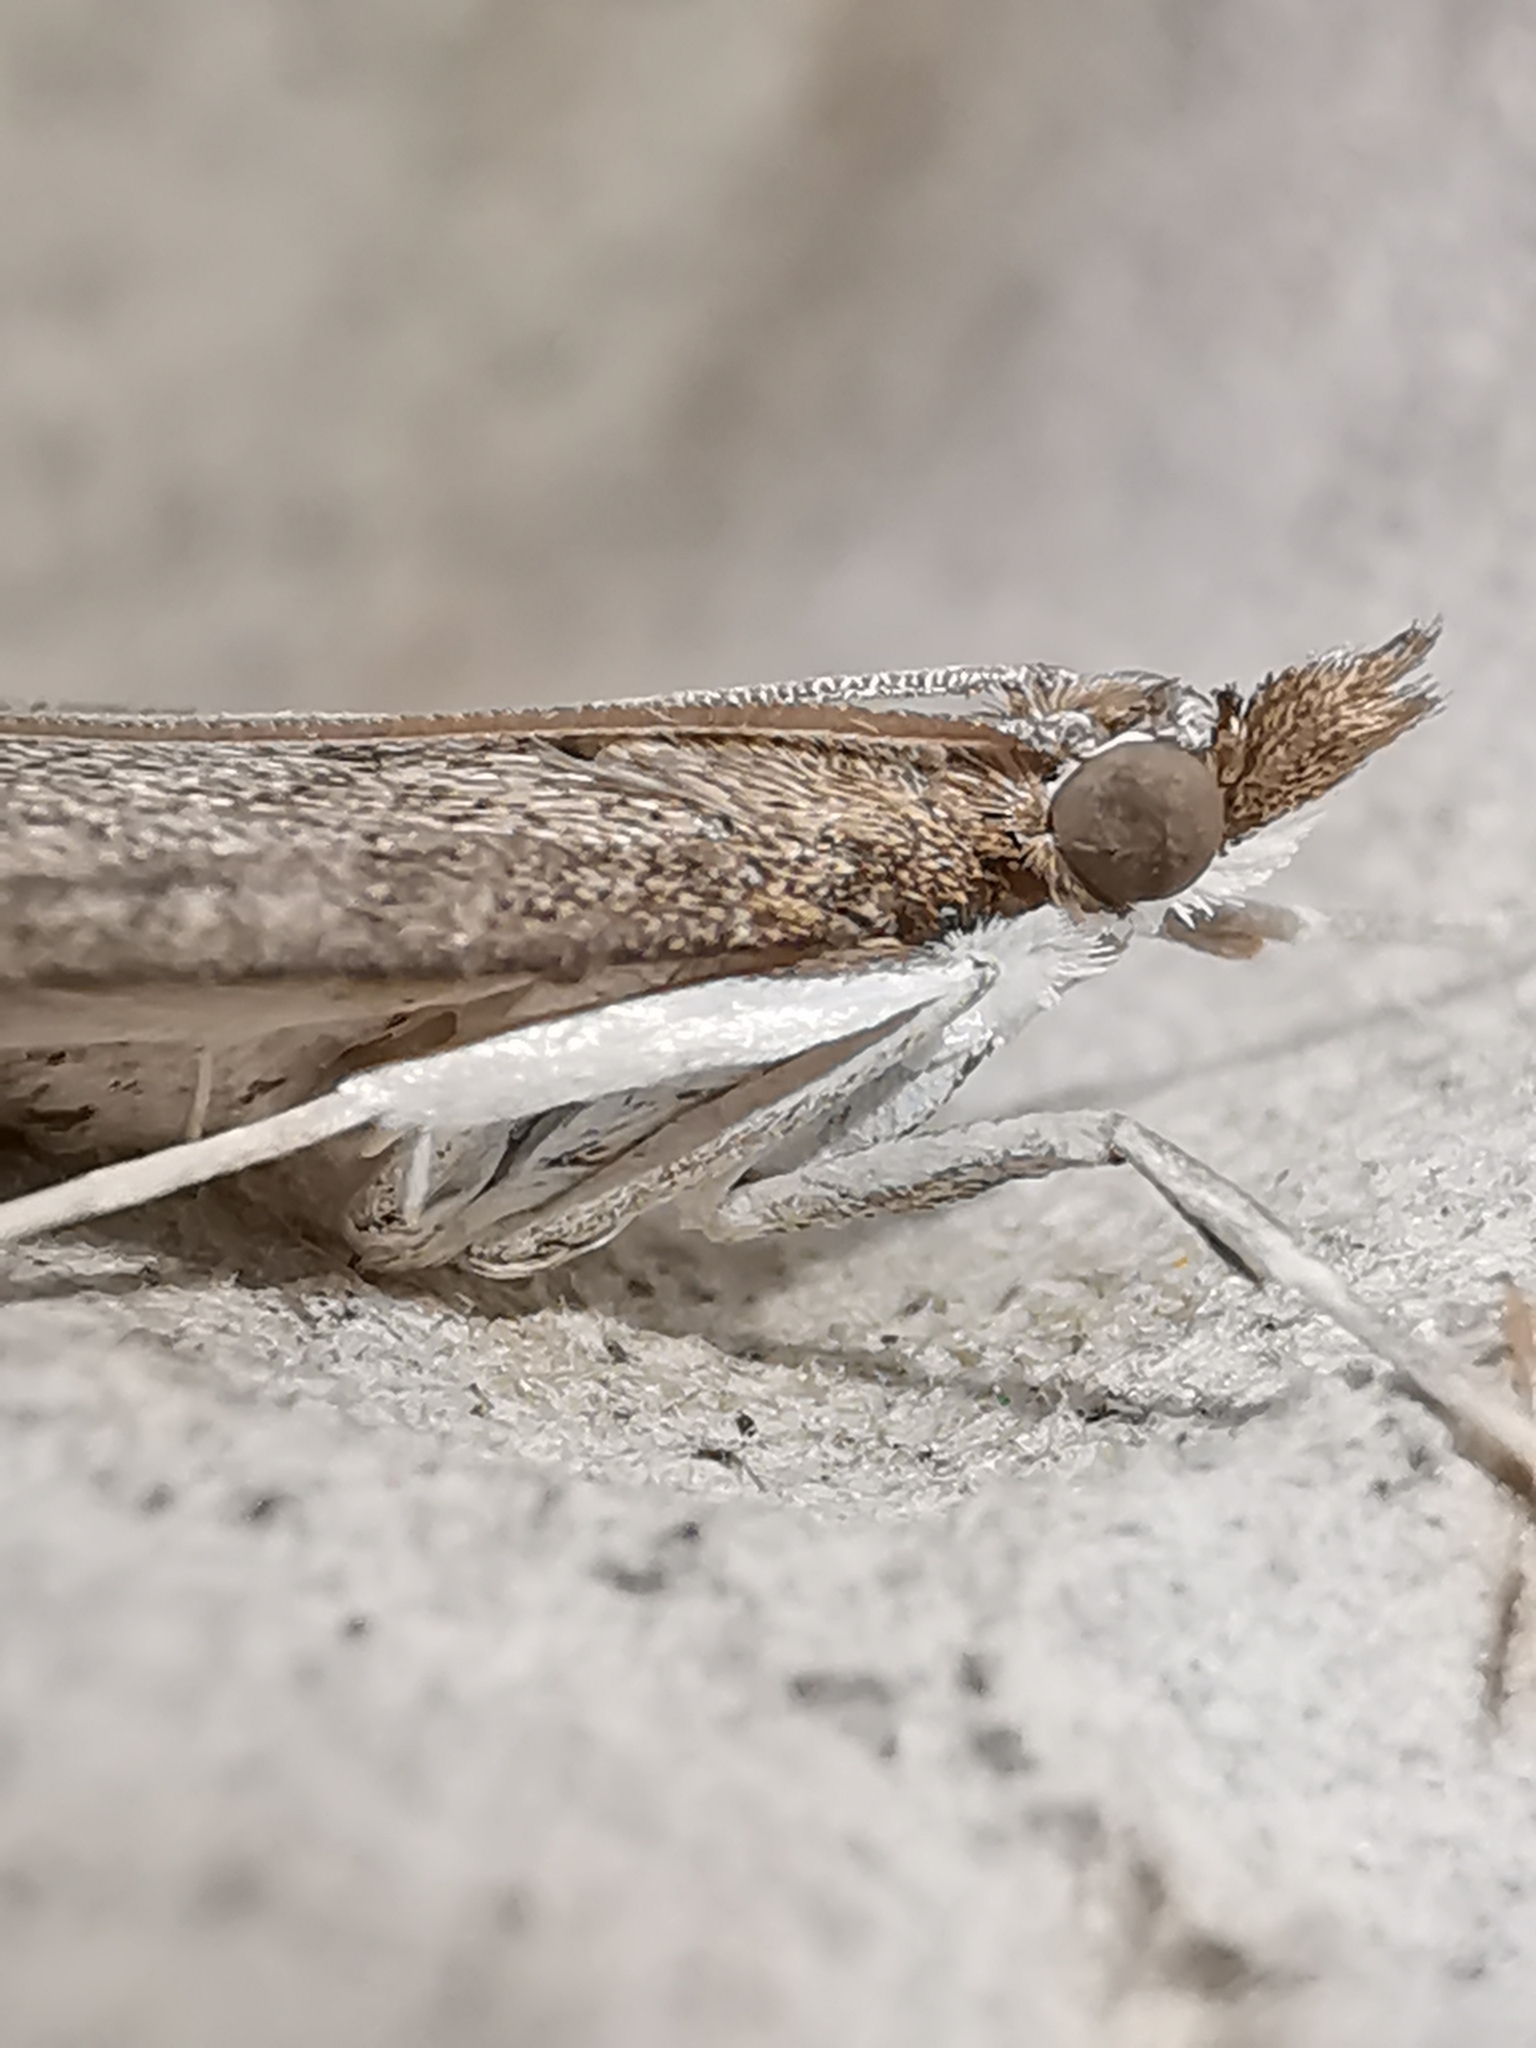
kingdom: Animalia
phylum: Arthropoda
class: Insecta
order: Lepidoptera
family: Crambidae
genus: Udea
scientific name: Udea prunalis
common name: Dusky pearl
